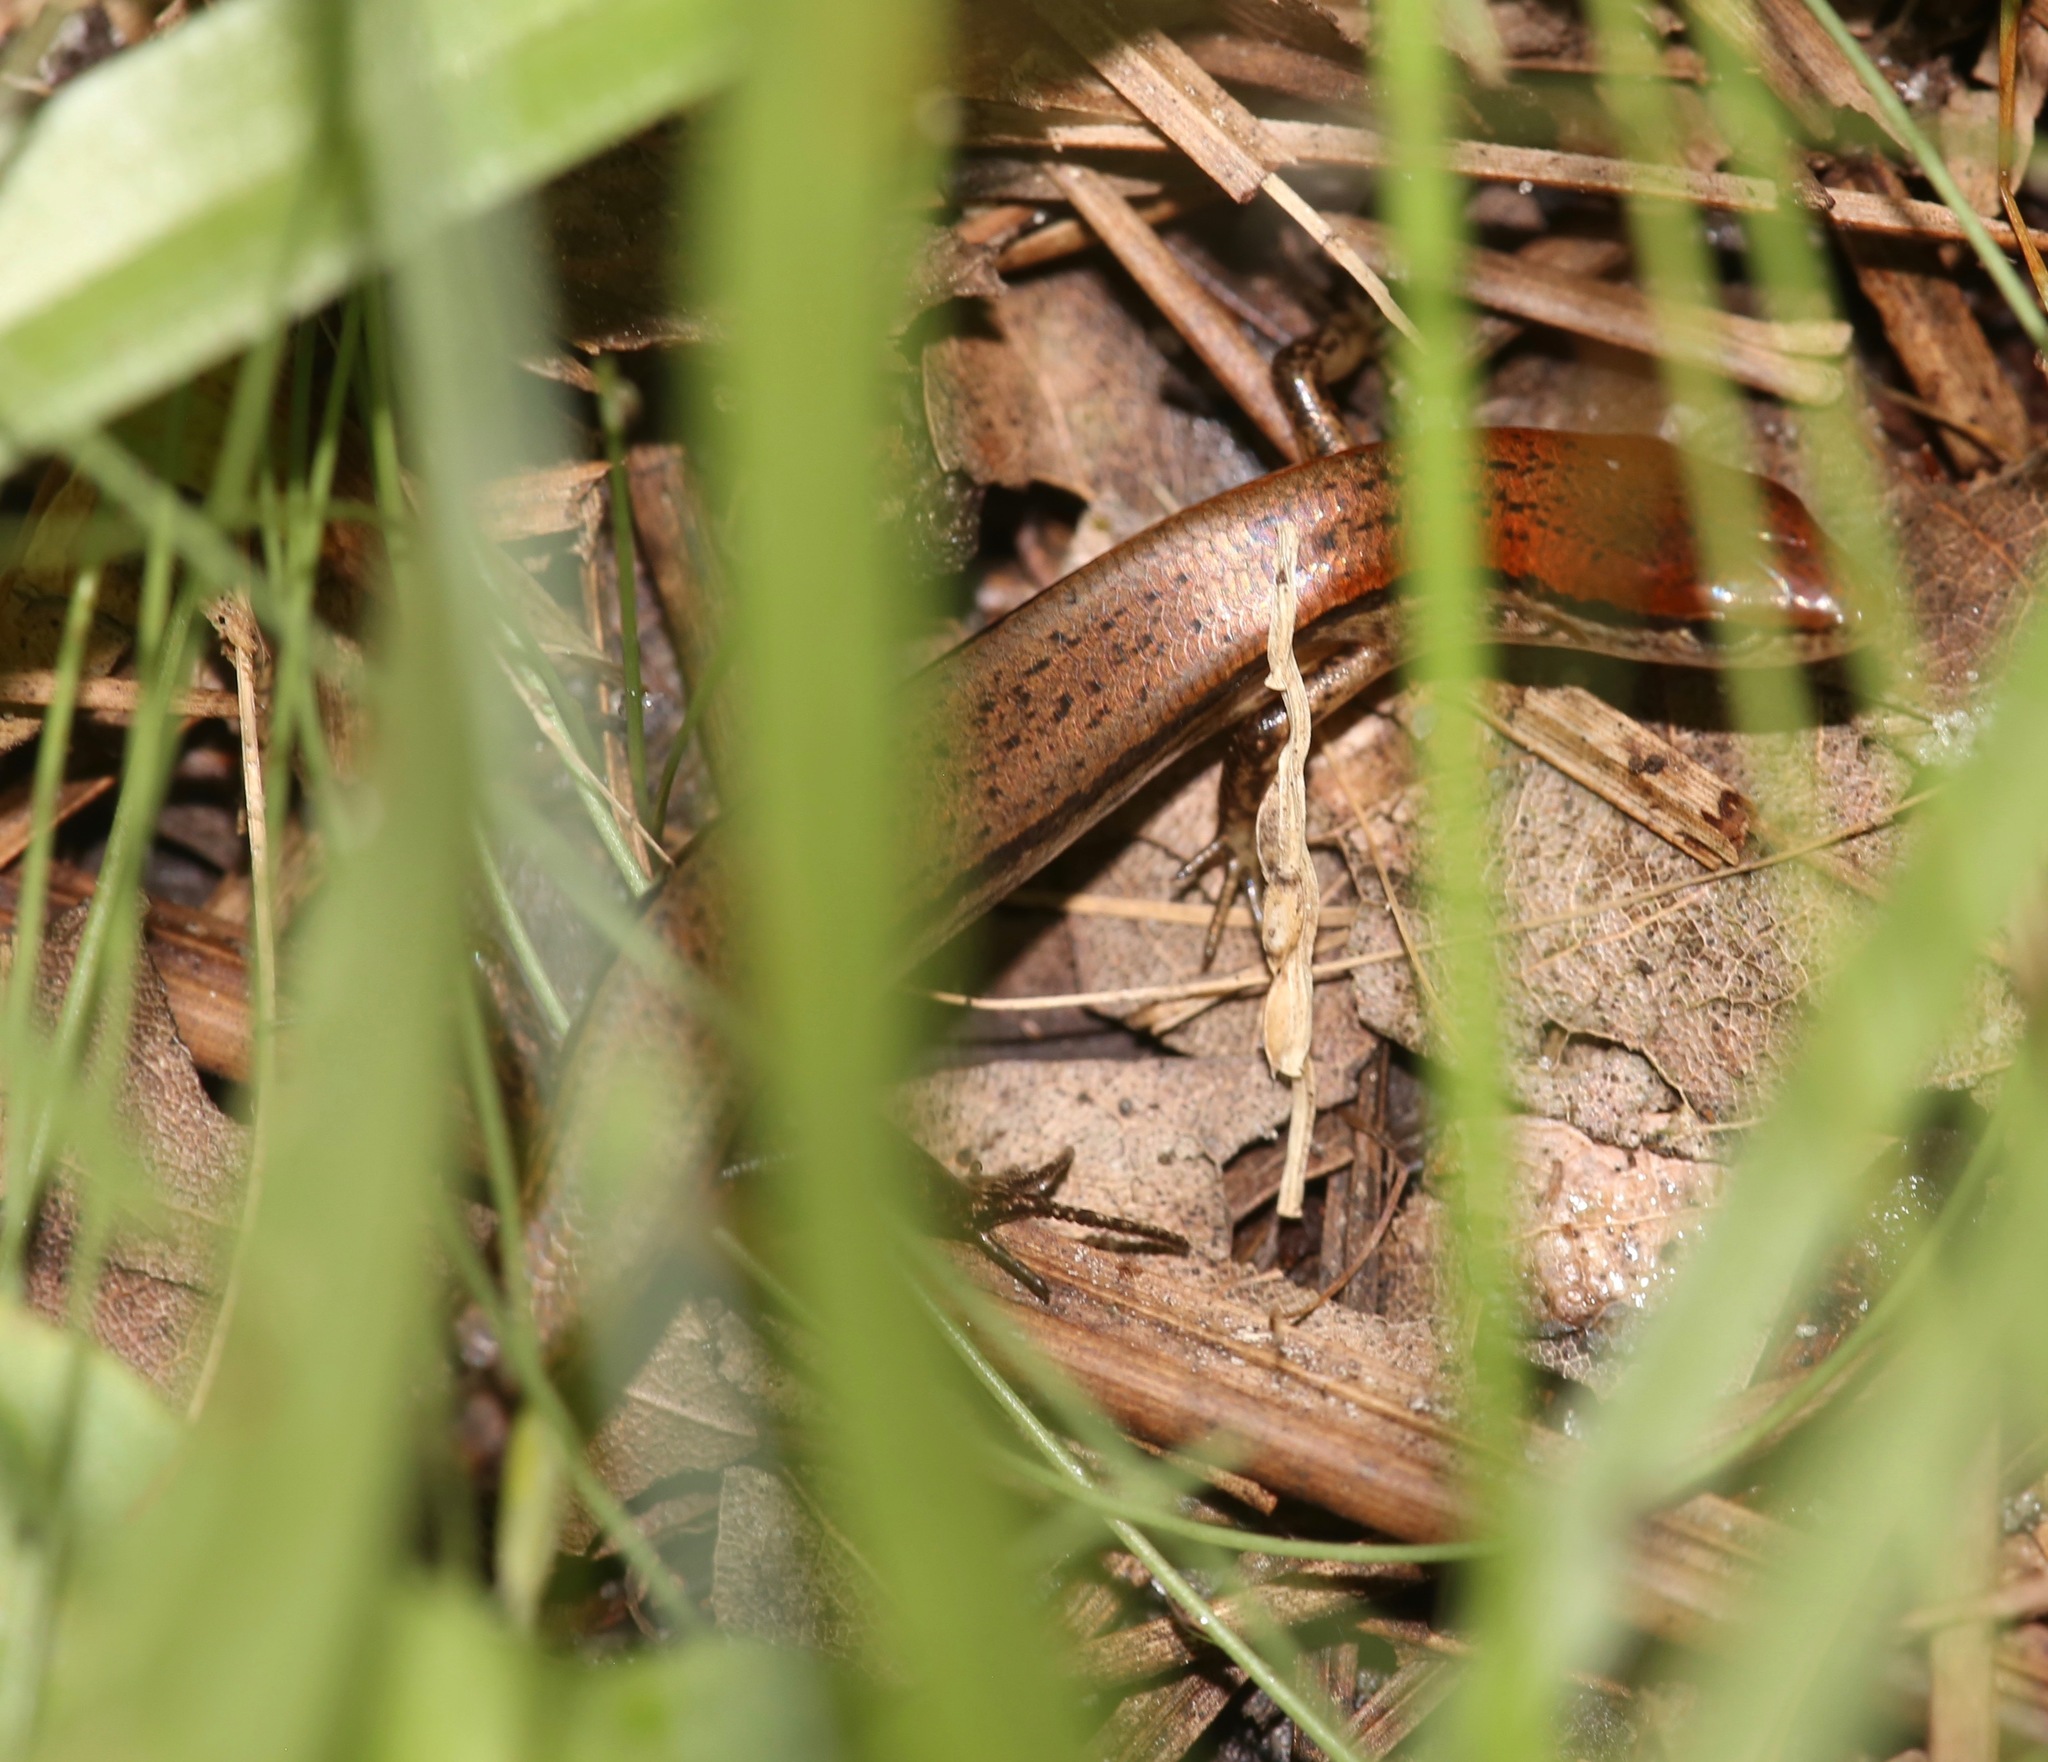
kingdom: Animalia
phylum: Chordata
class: Squamata
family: Scincidae
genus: Scincella
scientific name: Scincella lateralis
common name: Ground skink
